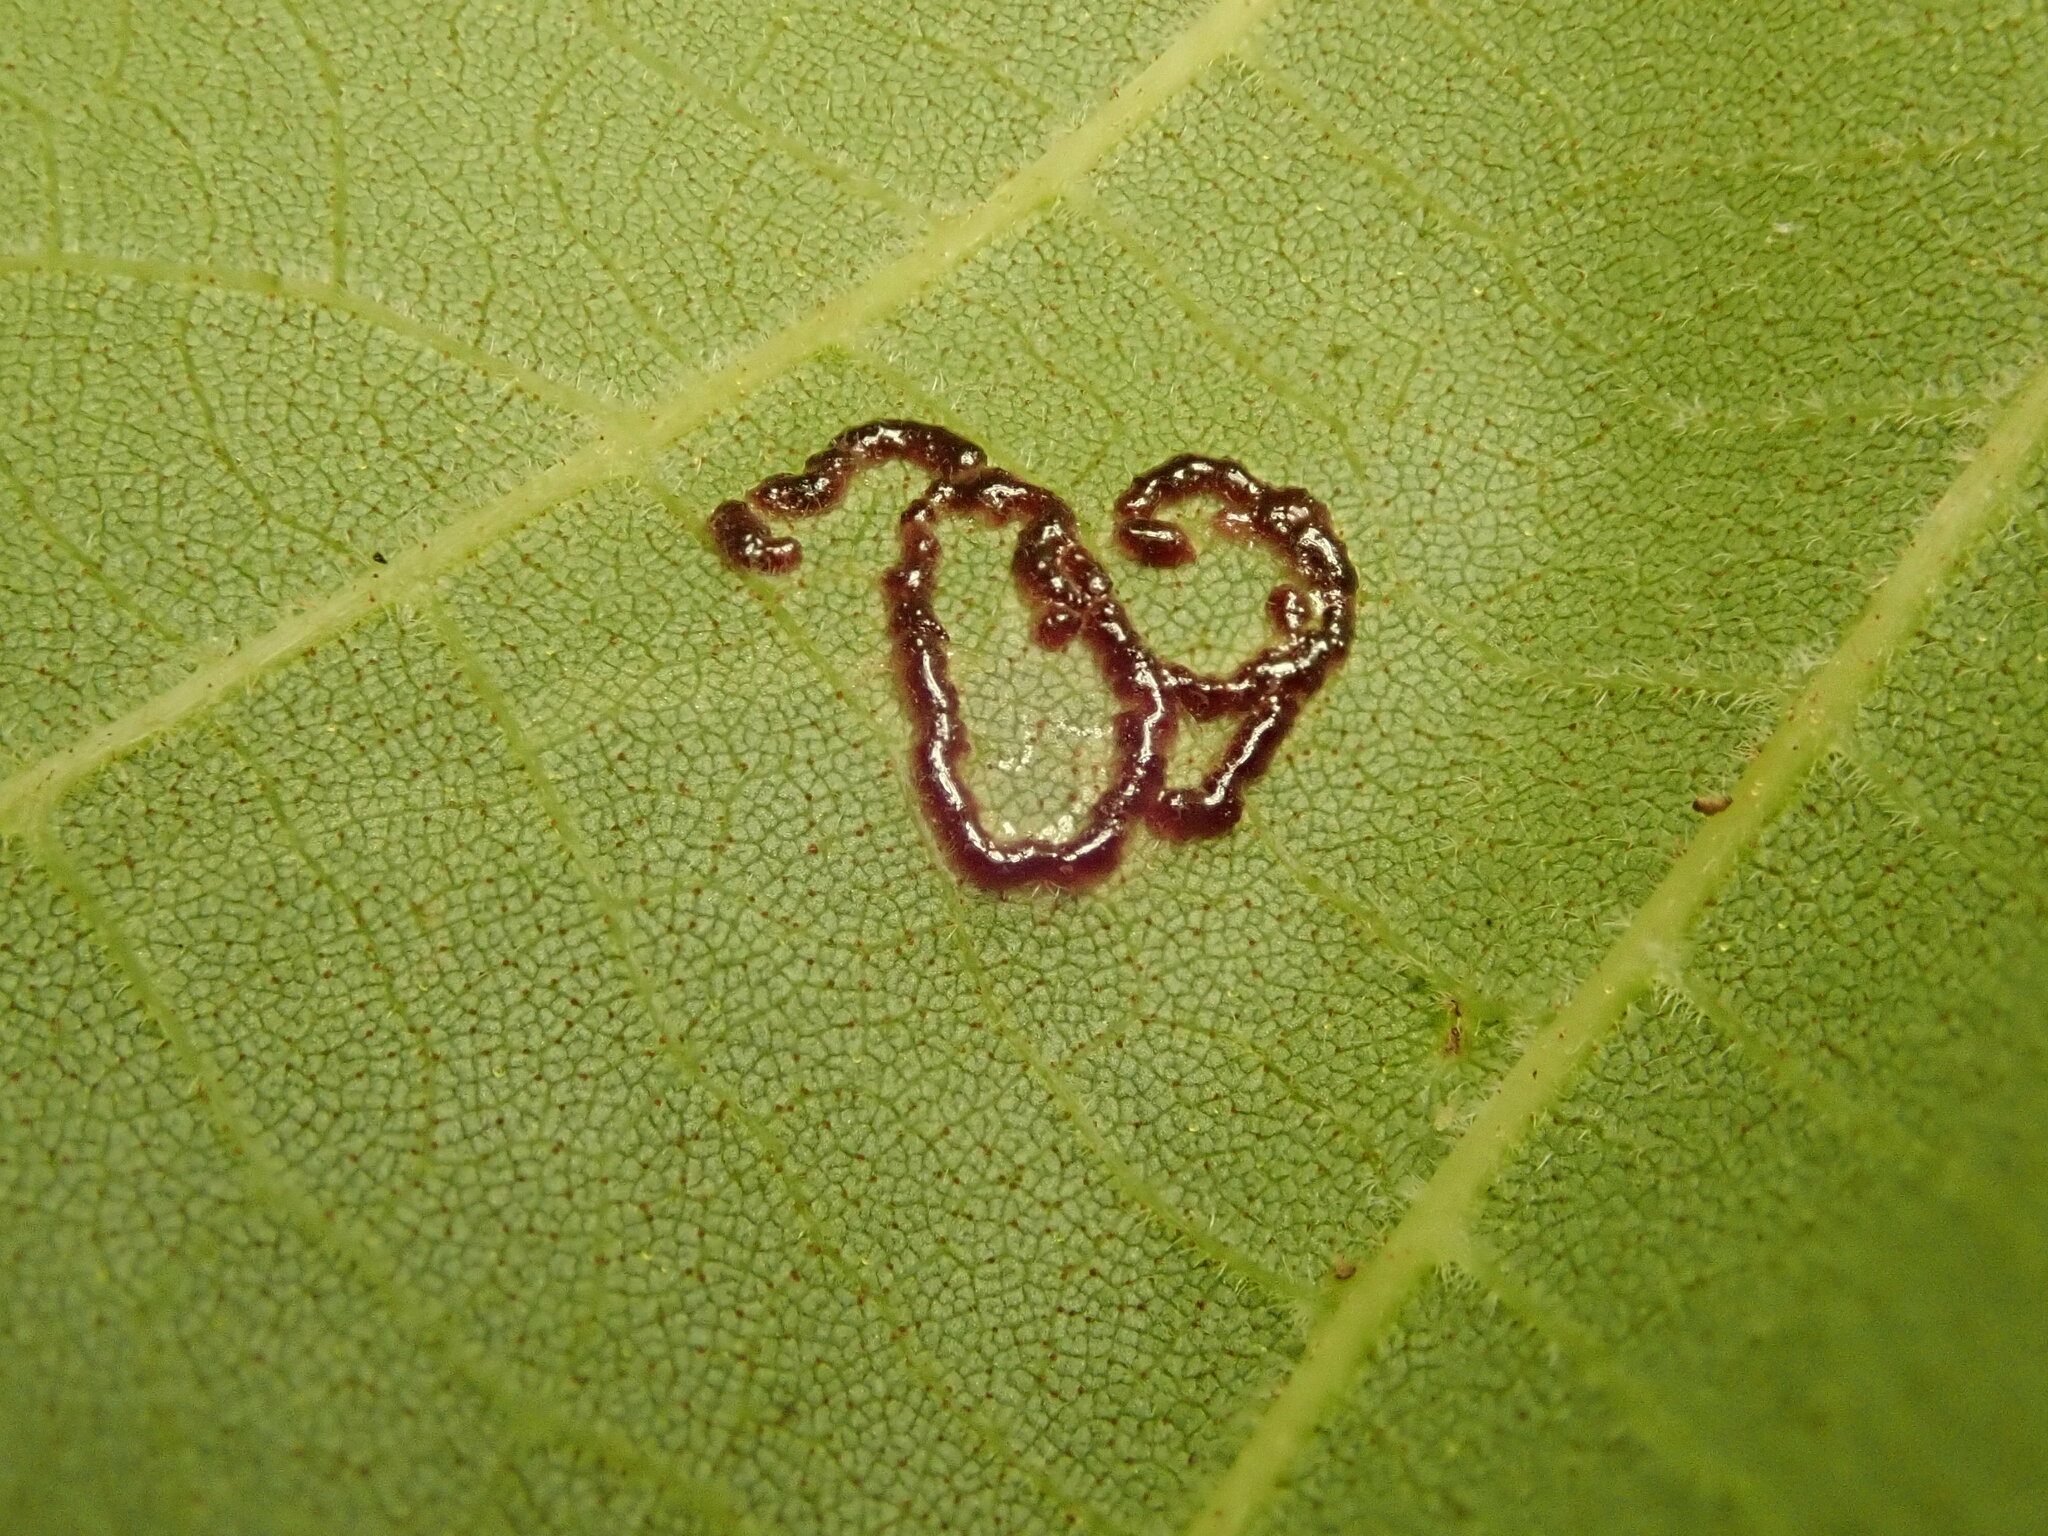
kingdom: Animalia
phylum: Arthropoda
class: Insecta
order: Diptera
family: Cecidomyiidae
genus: Gliaspilota
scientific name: Gliaspilota glutinosa
